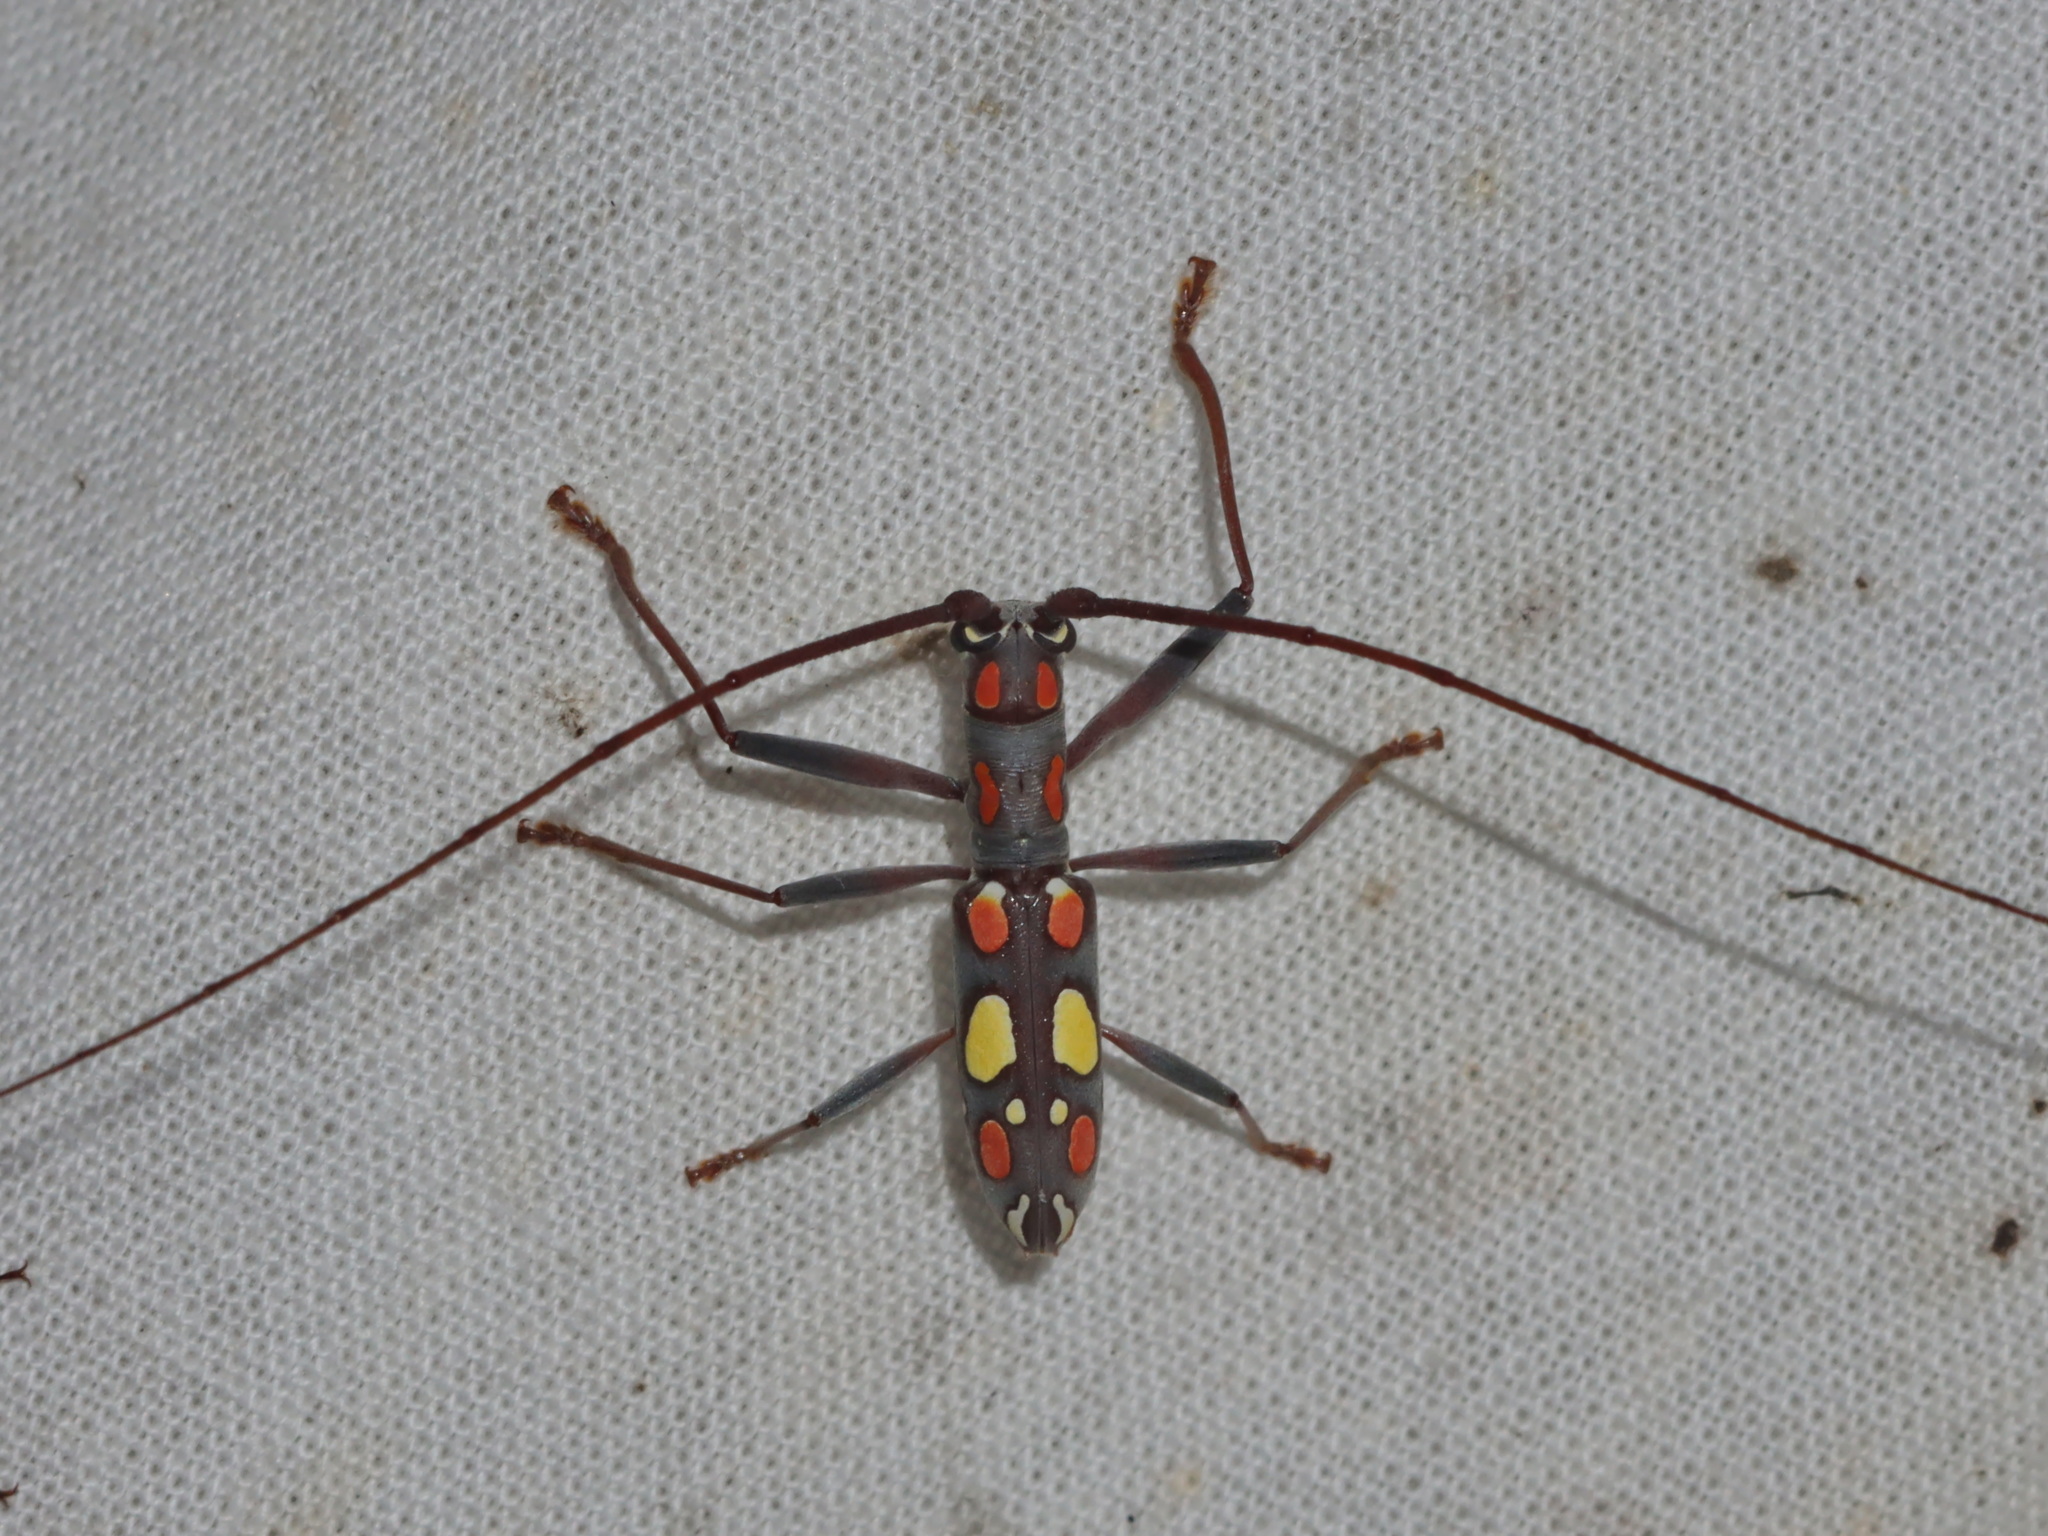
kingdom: Animalia
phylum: Arthropoda
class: Insecta
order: Coleoptera
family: Cerambycidae
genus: Cylindrepomus
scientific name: Cylindrepomus fouqueti
